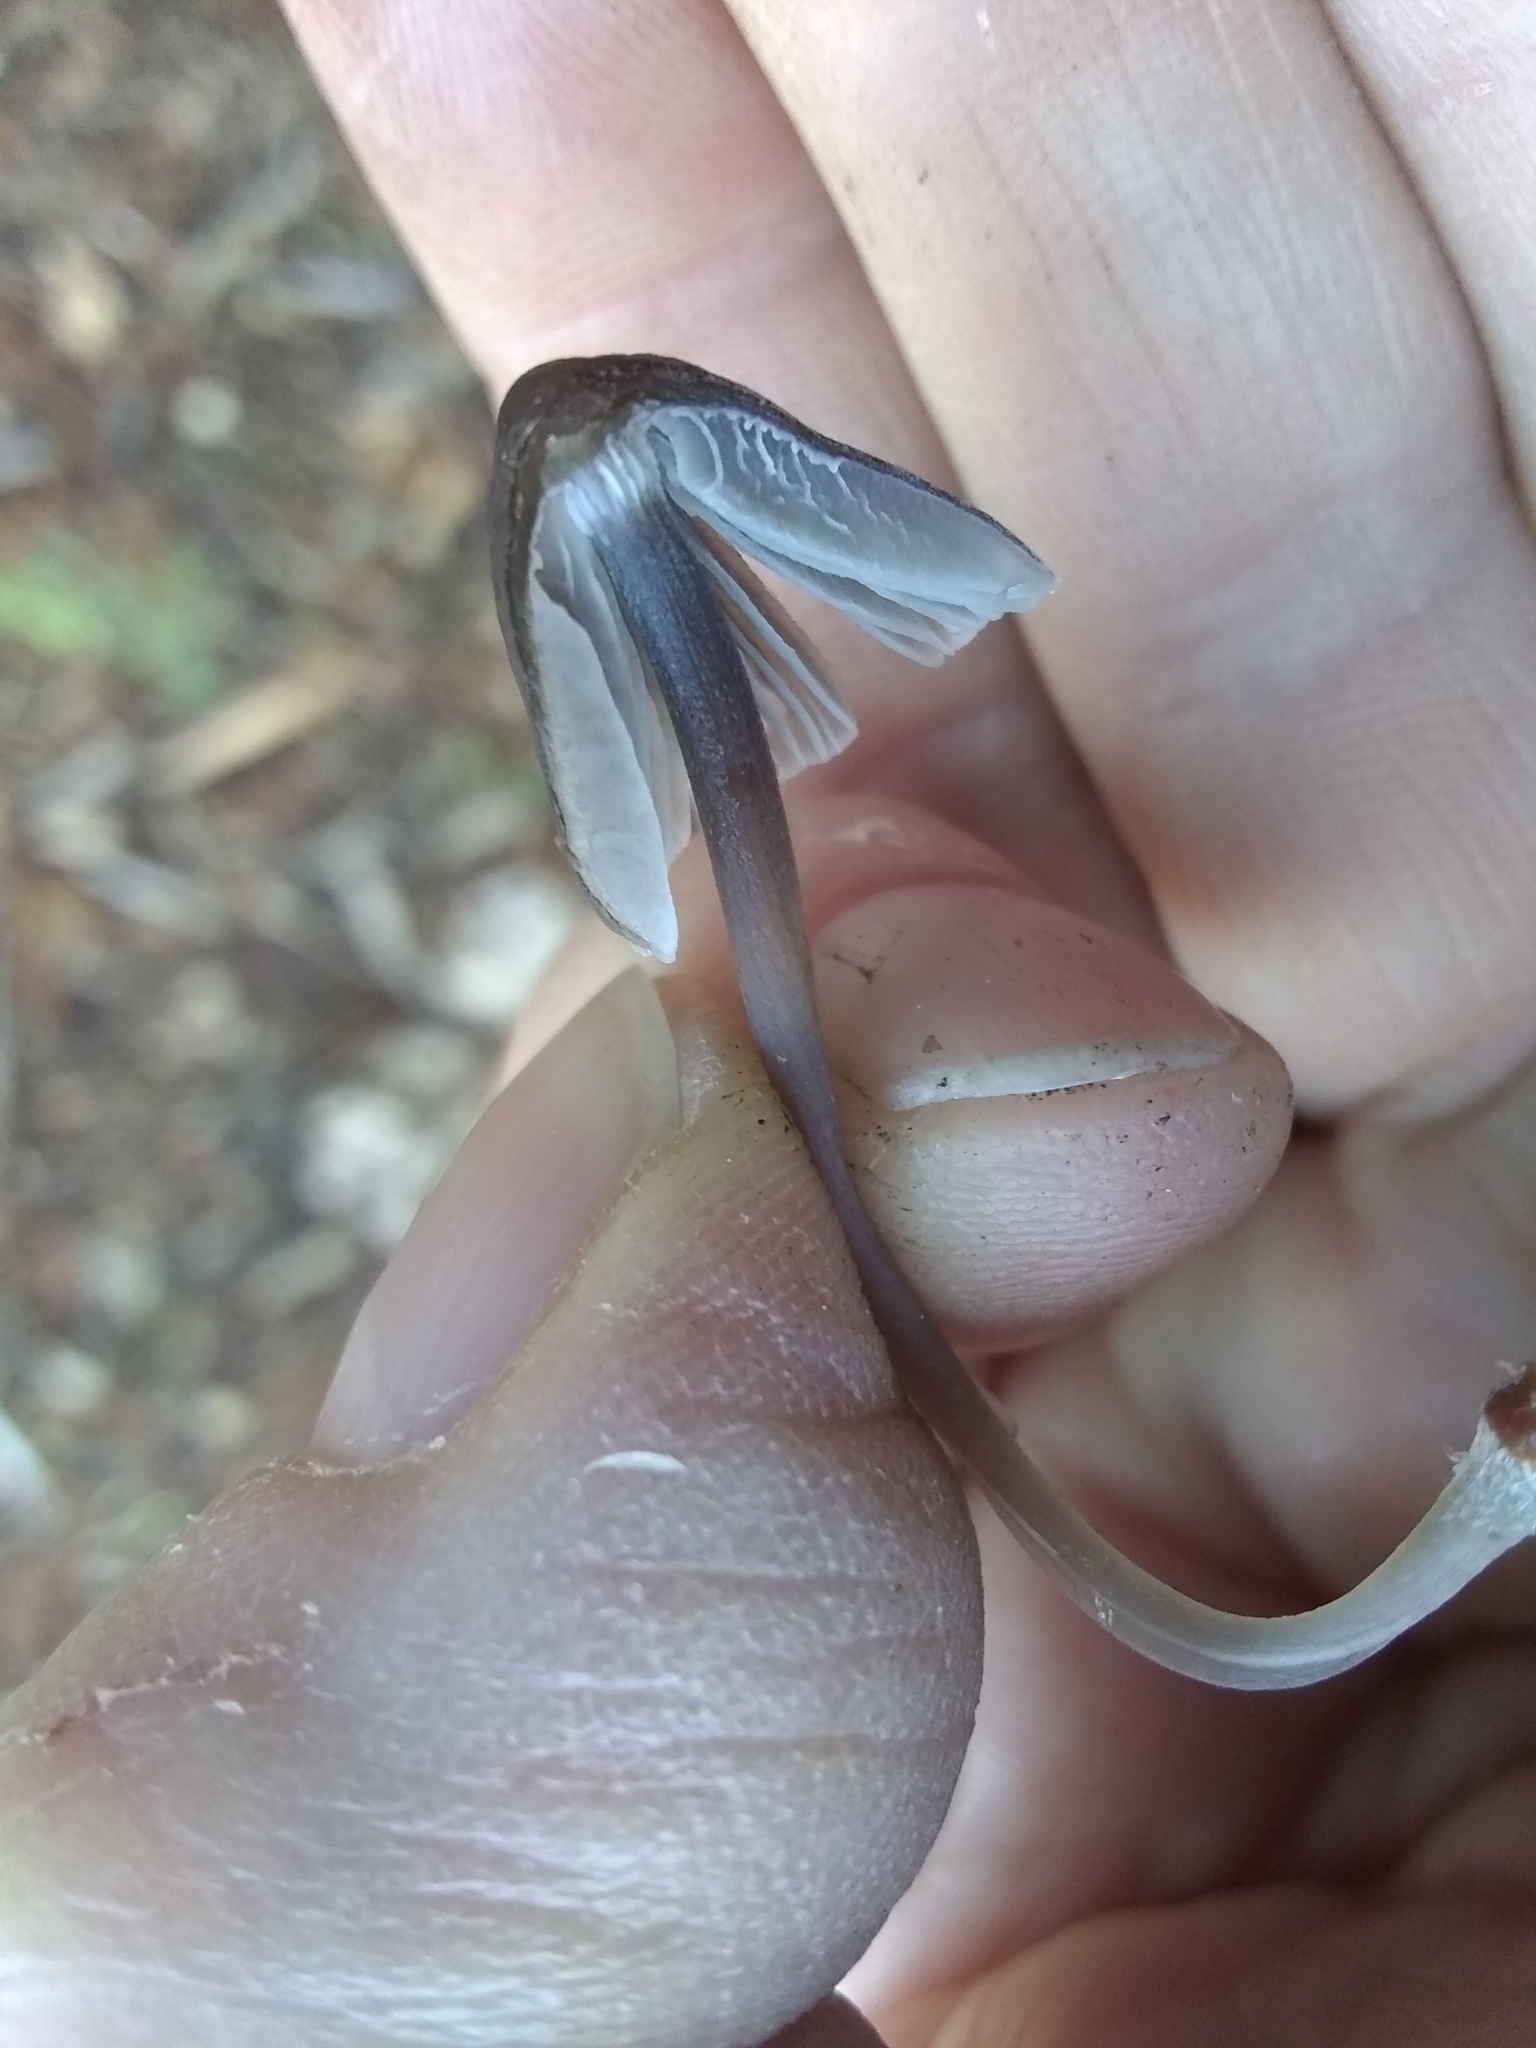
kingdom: Fungi
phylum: Basidiomycota
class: Agaricomycetes
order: Agaricales
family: Mycenaceae
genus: Mycena
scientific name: Mycena leptocephala
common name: Nitrous bonnet
